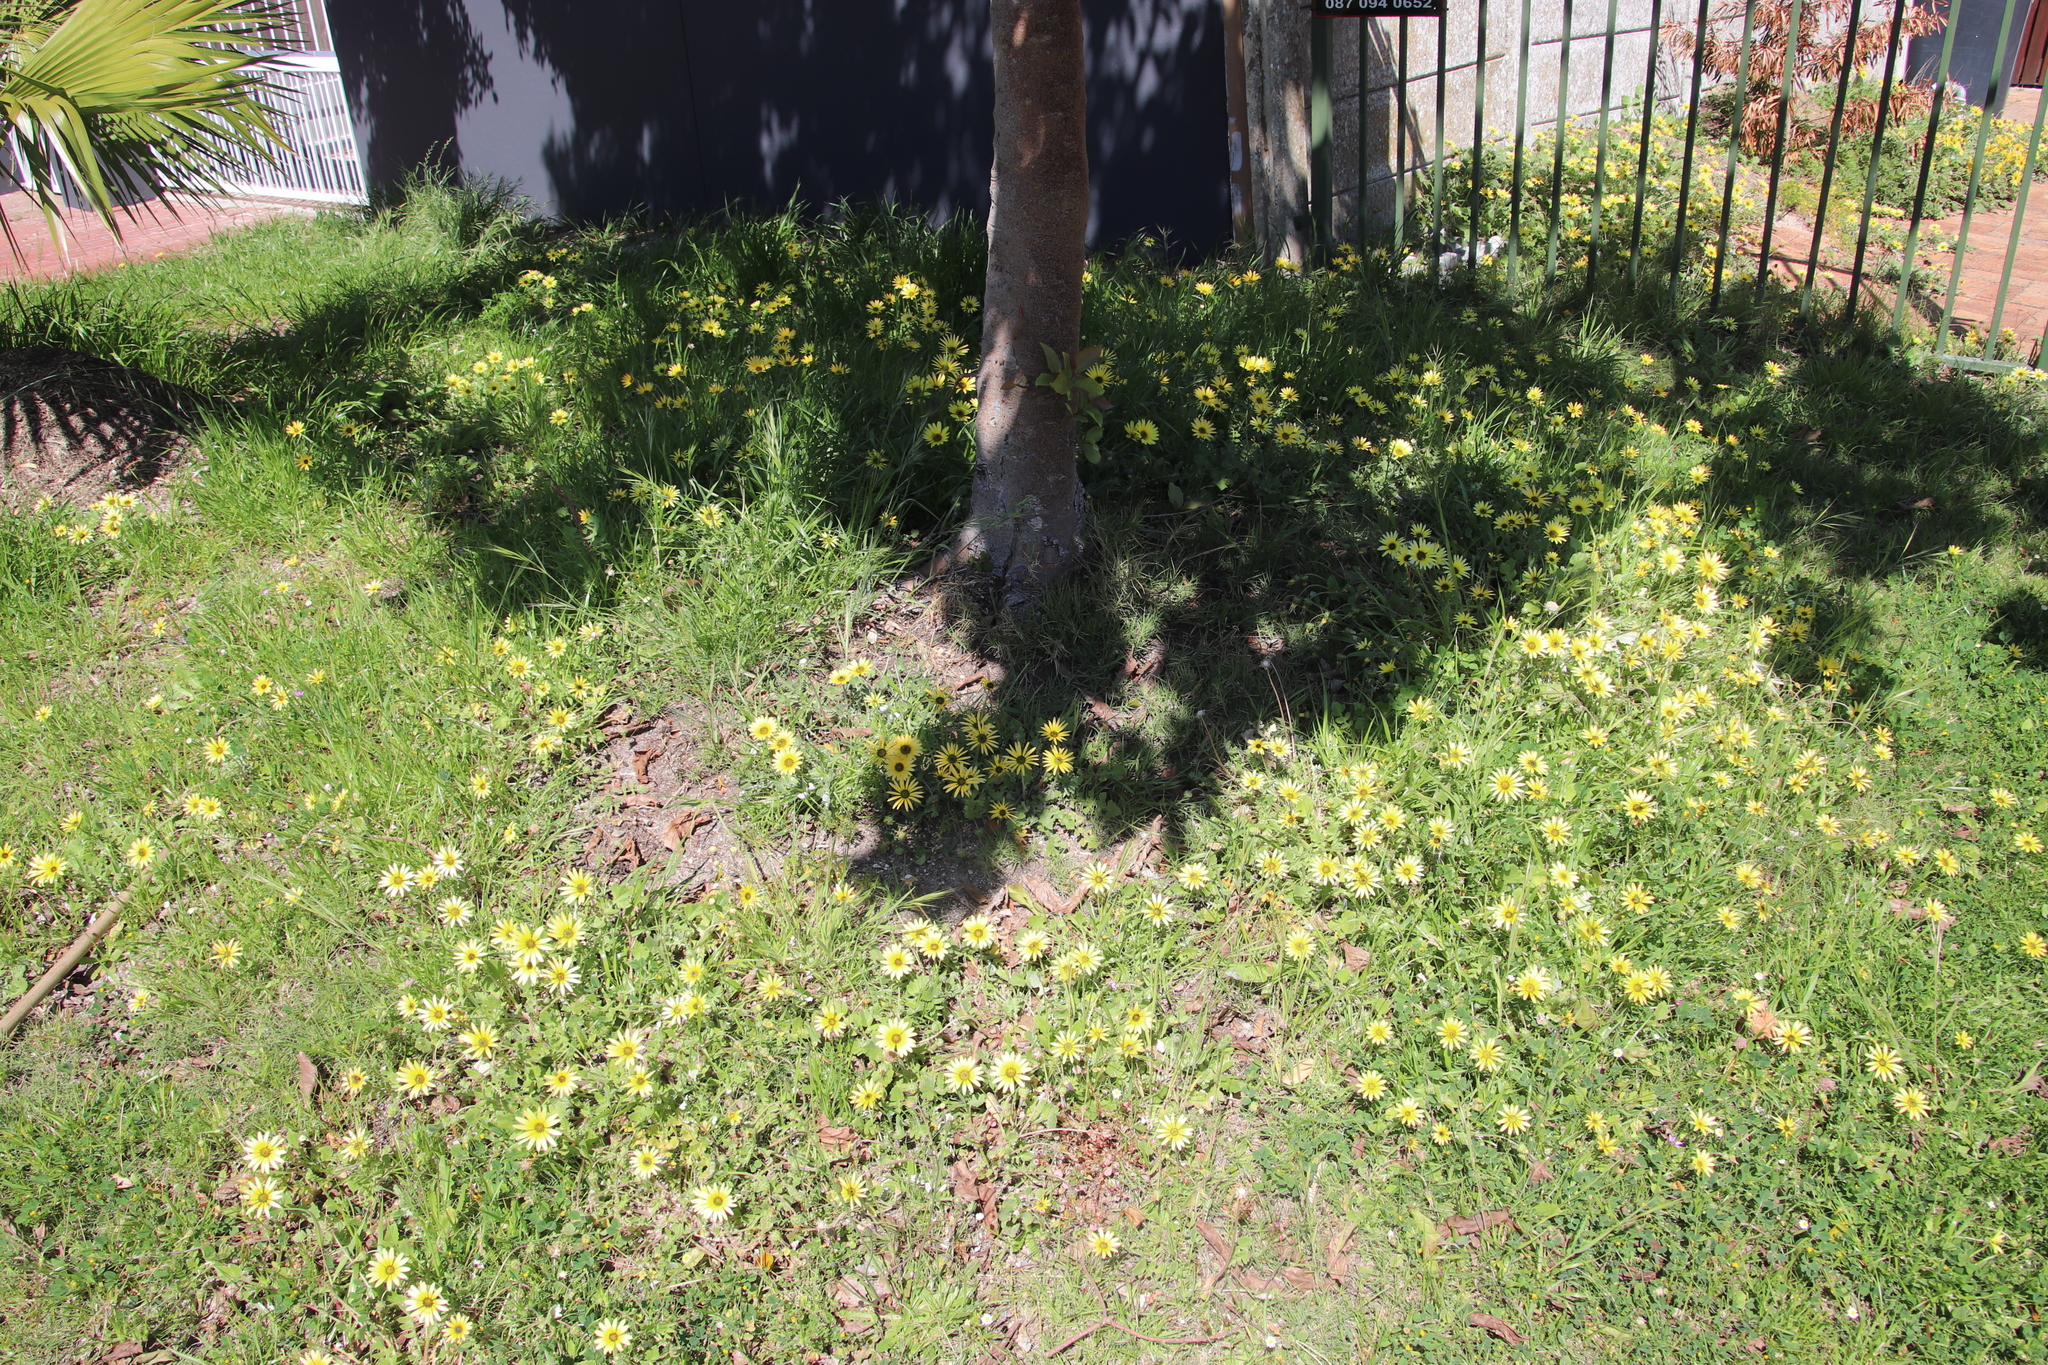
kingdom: Plantae
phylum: Tracheophyta
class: Magnoliopsida
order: Asterales
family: Asteraceae
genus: Arctotheca
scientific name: Arctotheca calendula
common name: Capeweed
